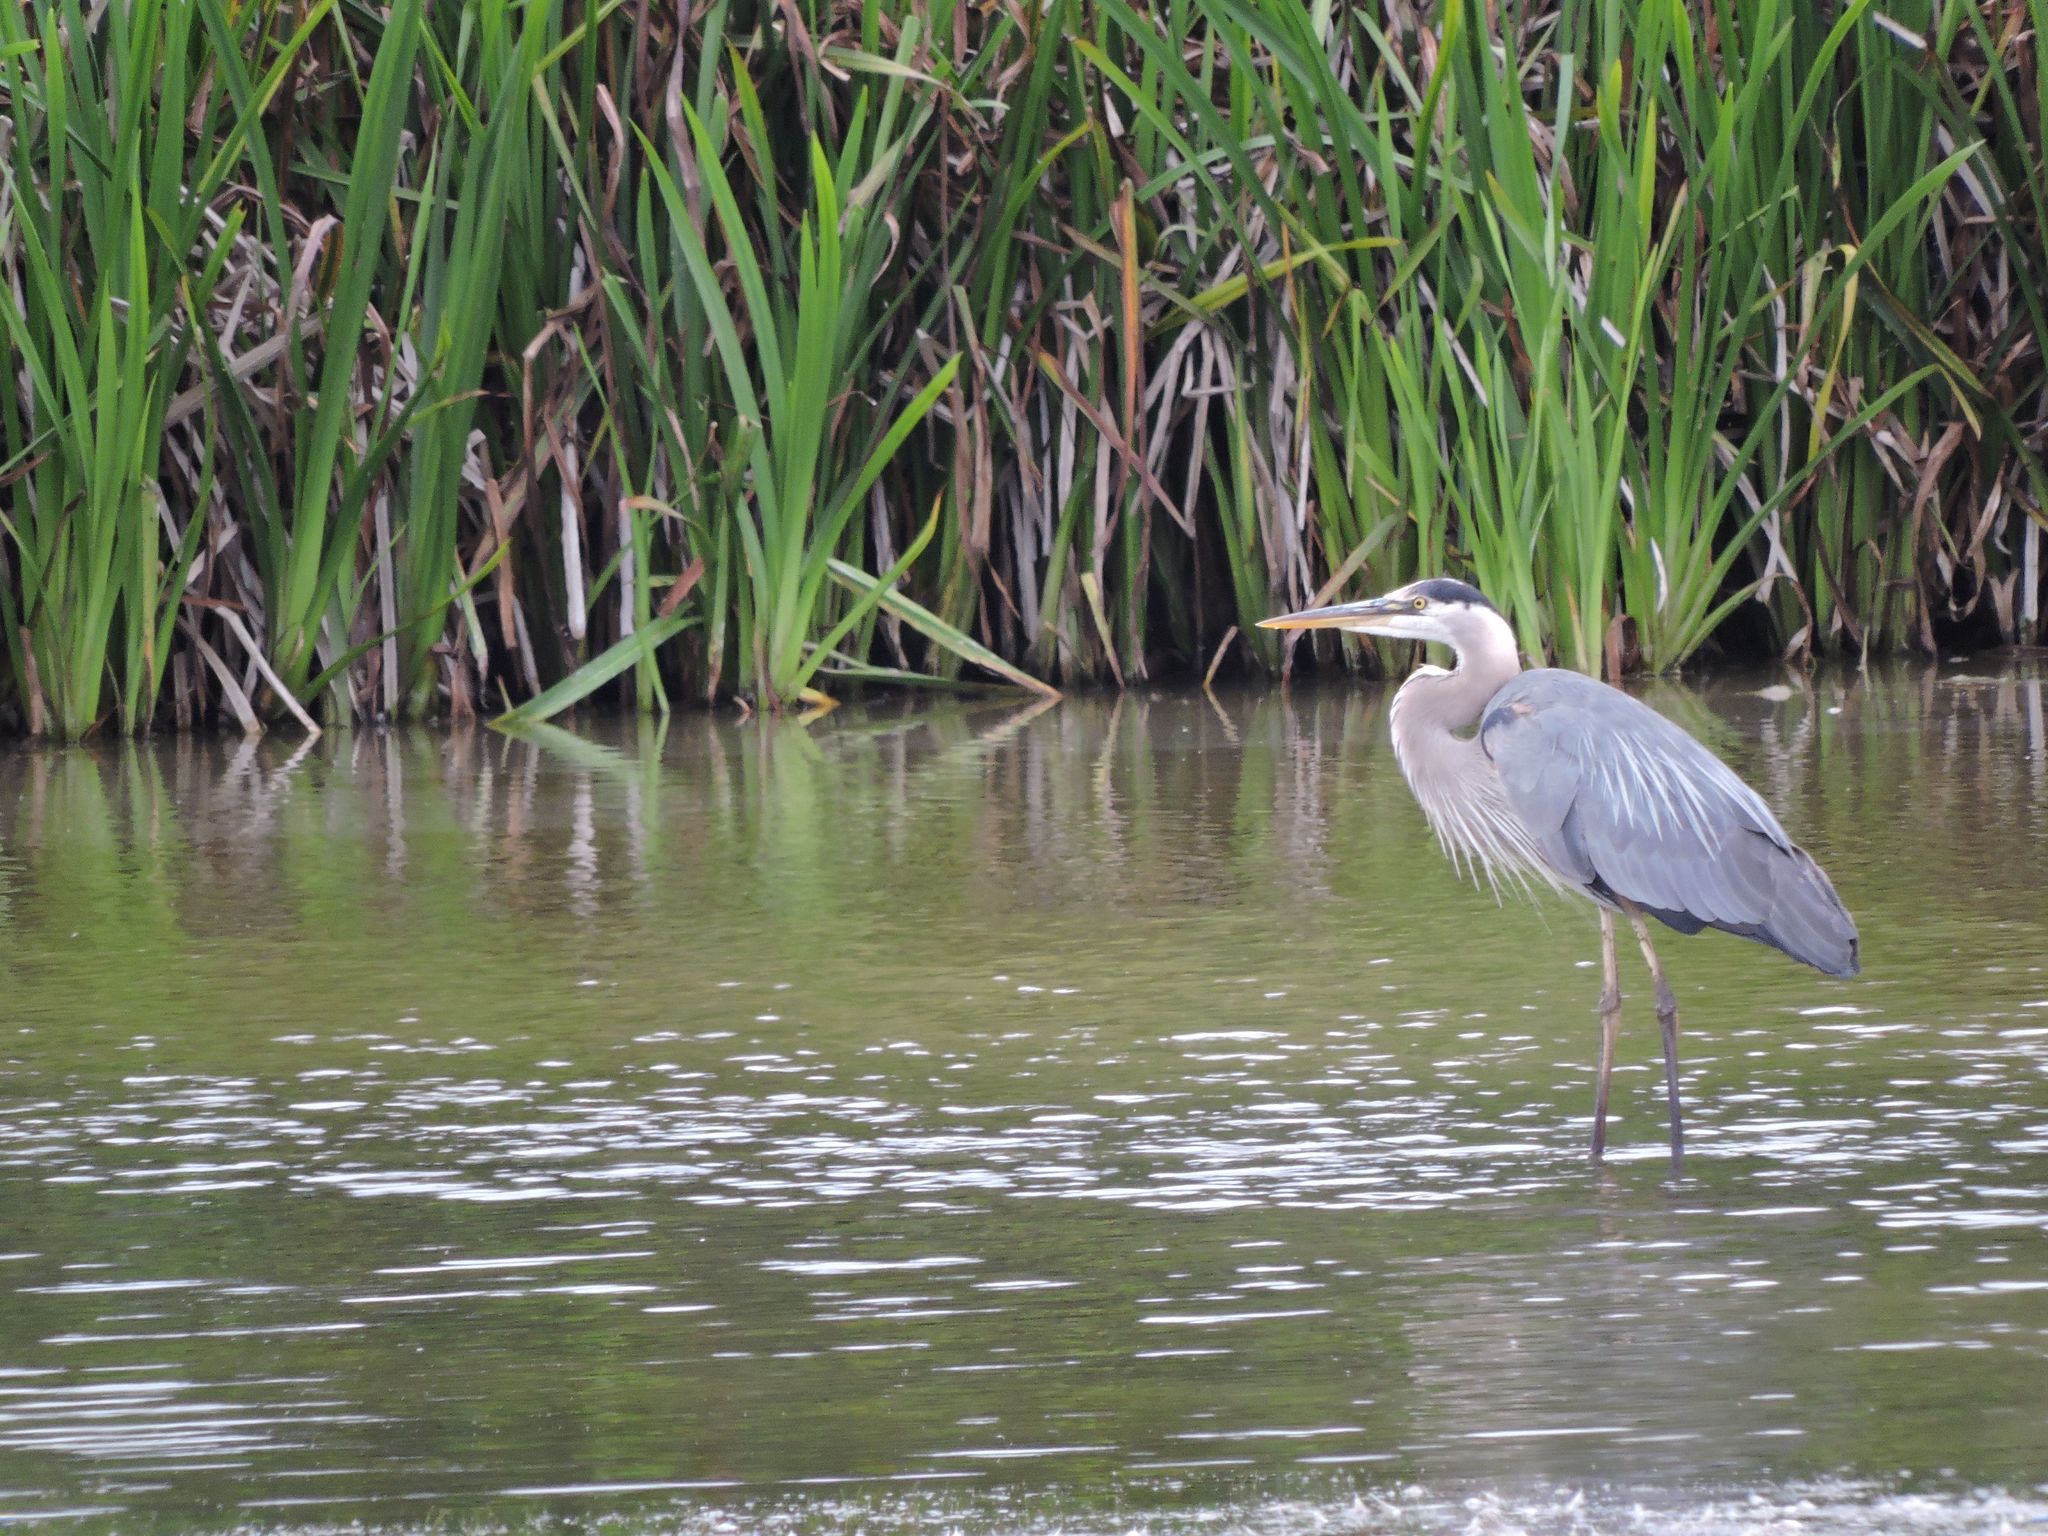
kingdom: Animalia
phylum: Chordata
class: Aves
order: Pelecaniformes
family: Ardeidae
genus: Ardea
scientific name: Ardea herodias
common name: Great blue heron
